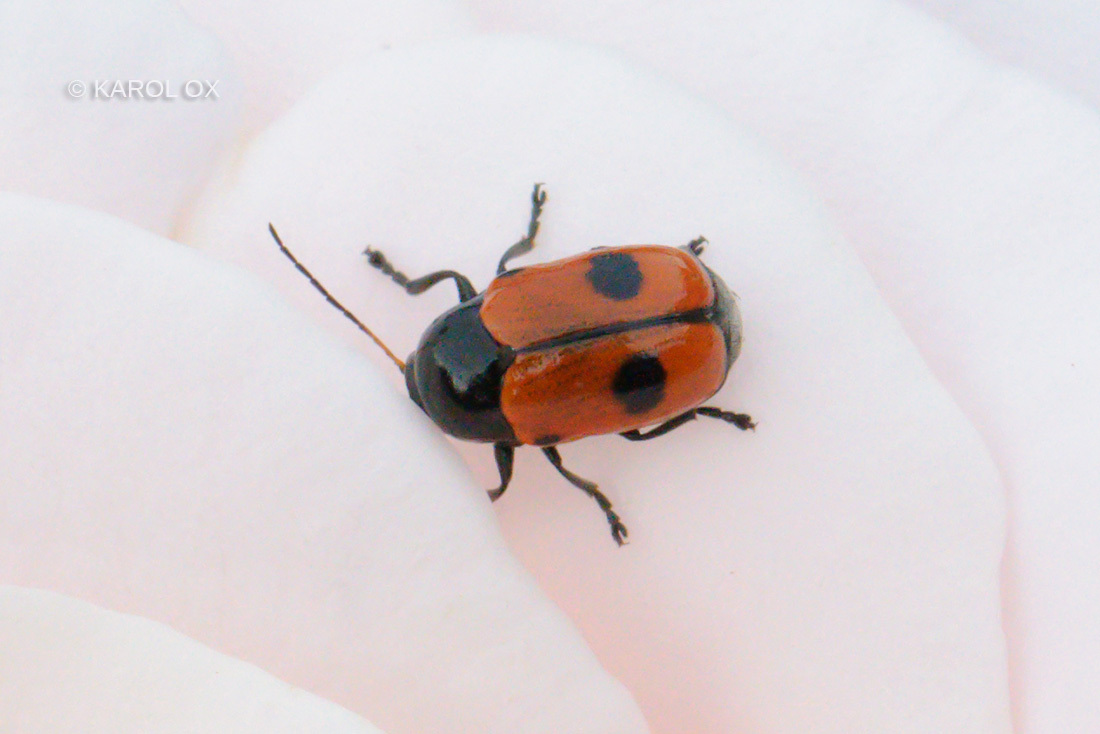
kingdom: Animalia
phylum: Arthropoda
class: Insecta
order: Coleoptera
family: Chrysomelidae
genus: Chiridopsis
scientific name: Chiridopsis bipunctata
